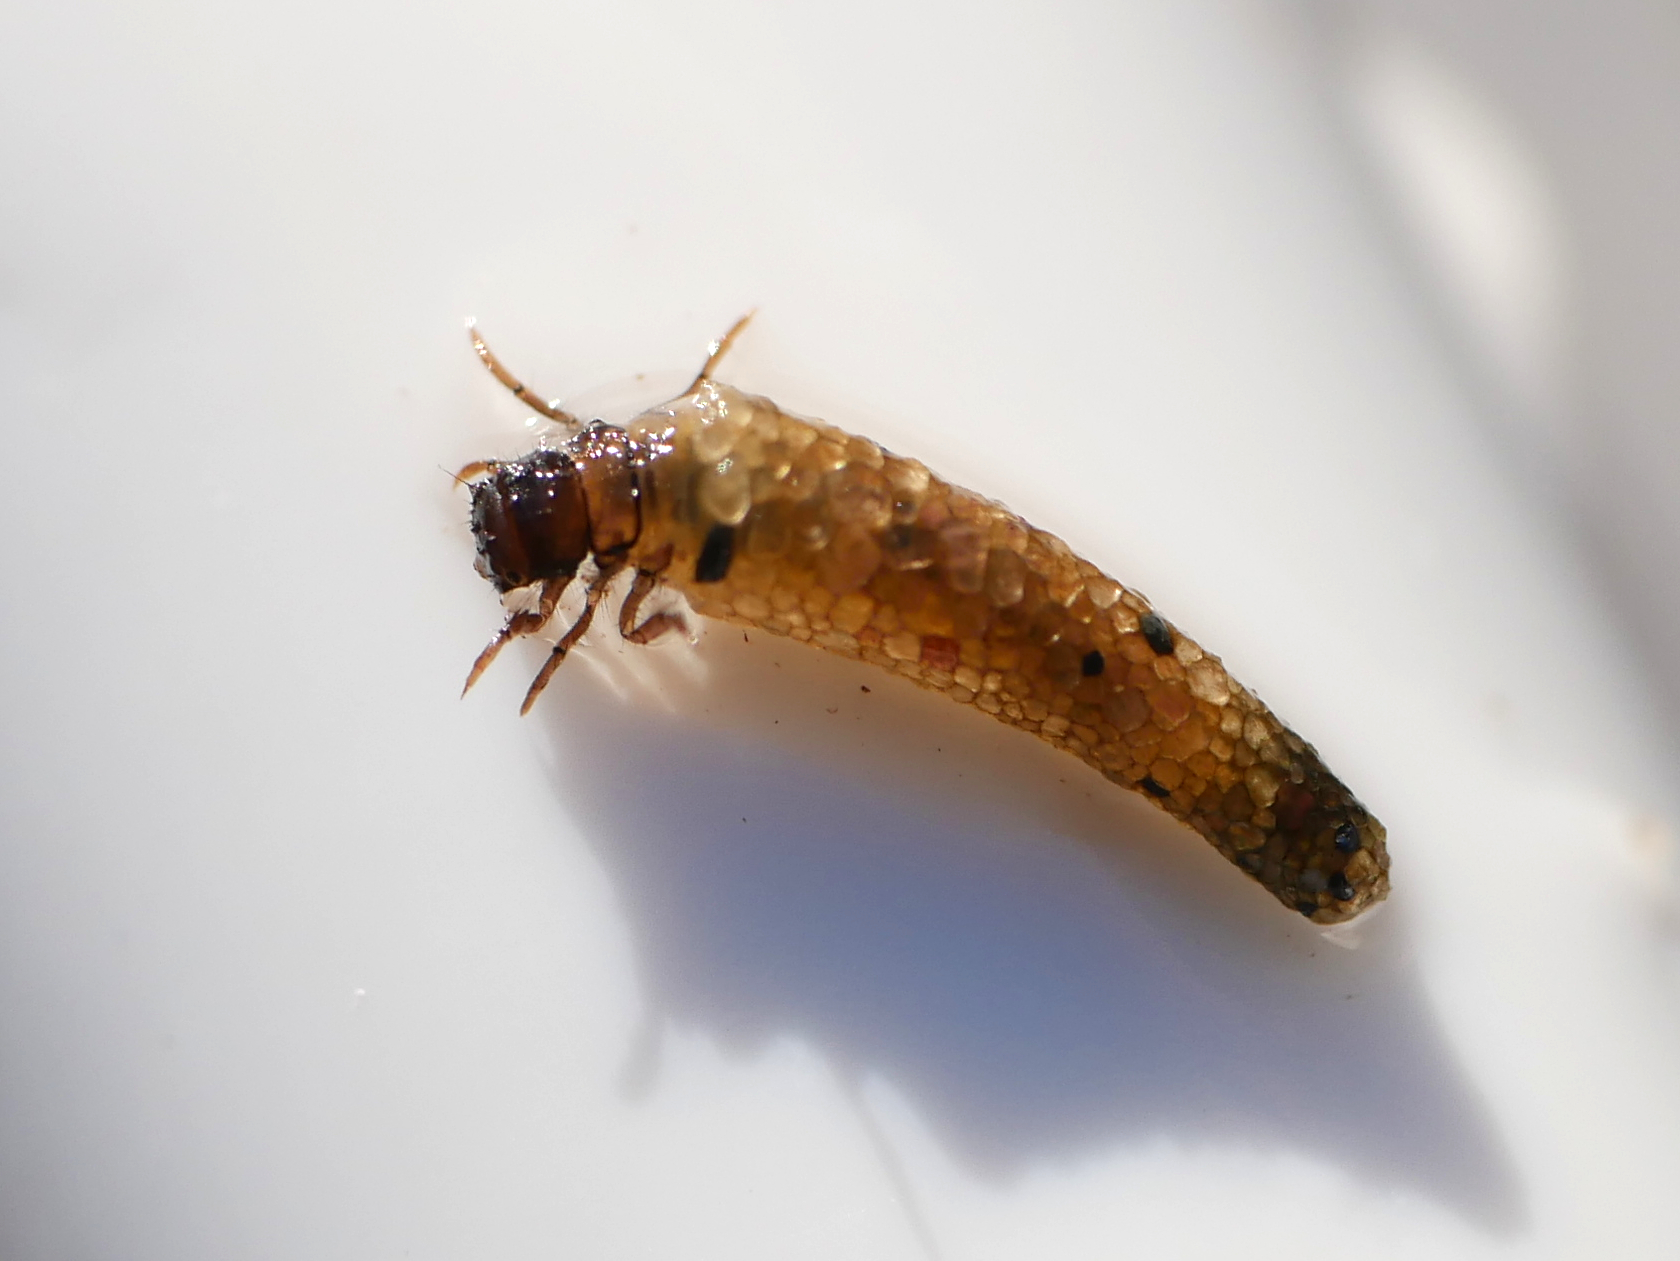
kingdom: Animalia
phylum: Arthropoda
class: Insecta
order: Trichoptera
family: Limnephilidae
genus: Ecclisopteryx
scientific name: Ecclisopteryx dalecarlica
